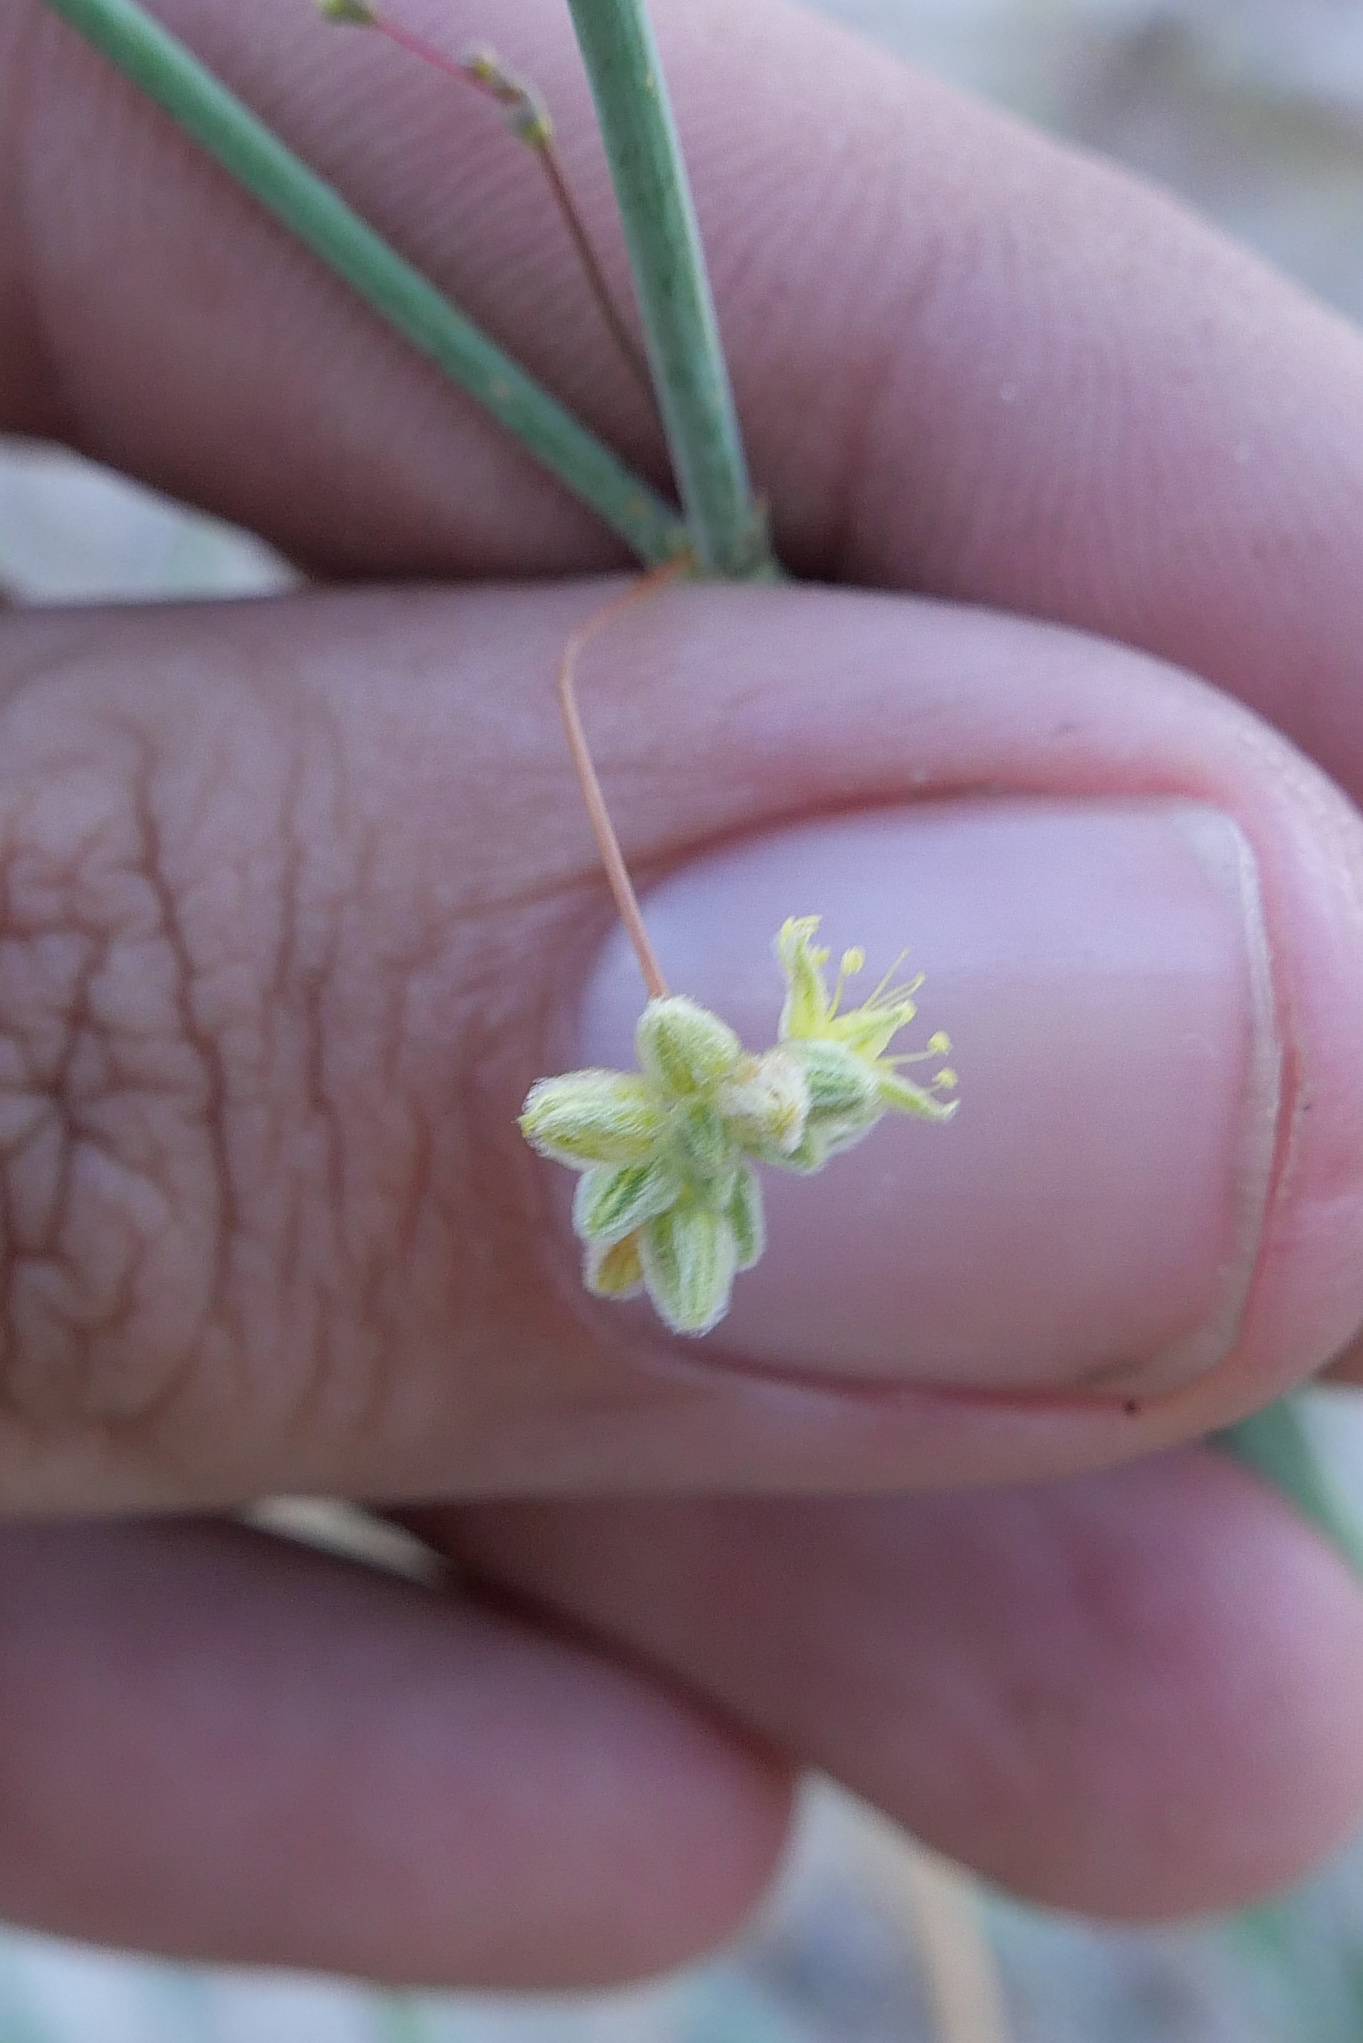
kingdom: Plantae
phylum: Tracheophyta
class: Magnoliopsida
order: Caryophyllales
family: Polygonaceae
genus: Eriogonum
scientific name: Eriogonum inflatum
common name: Desert trumpet
